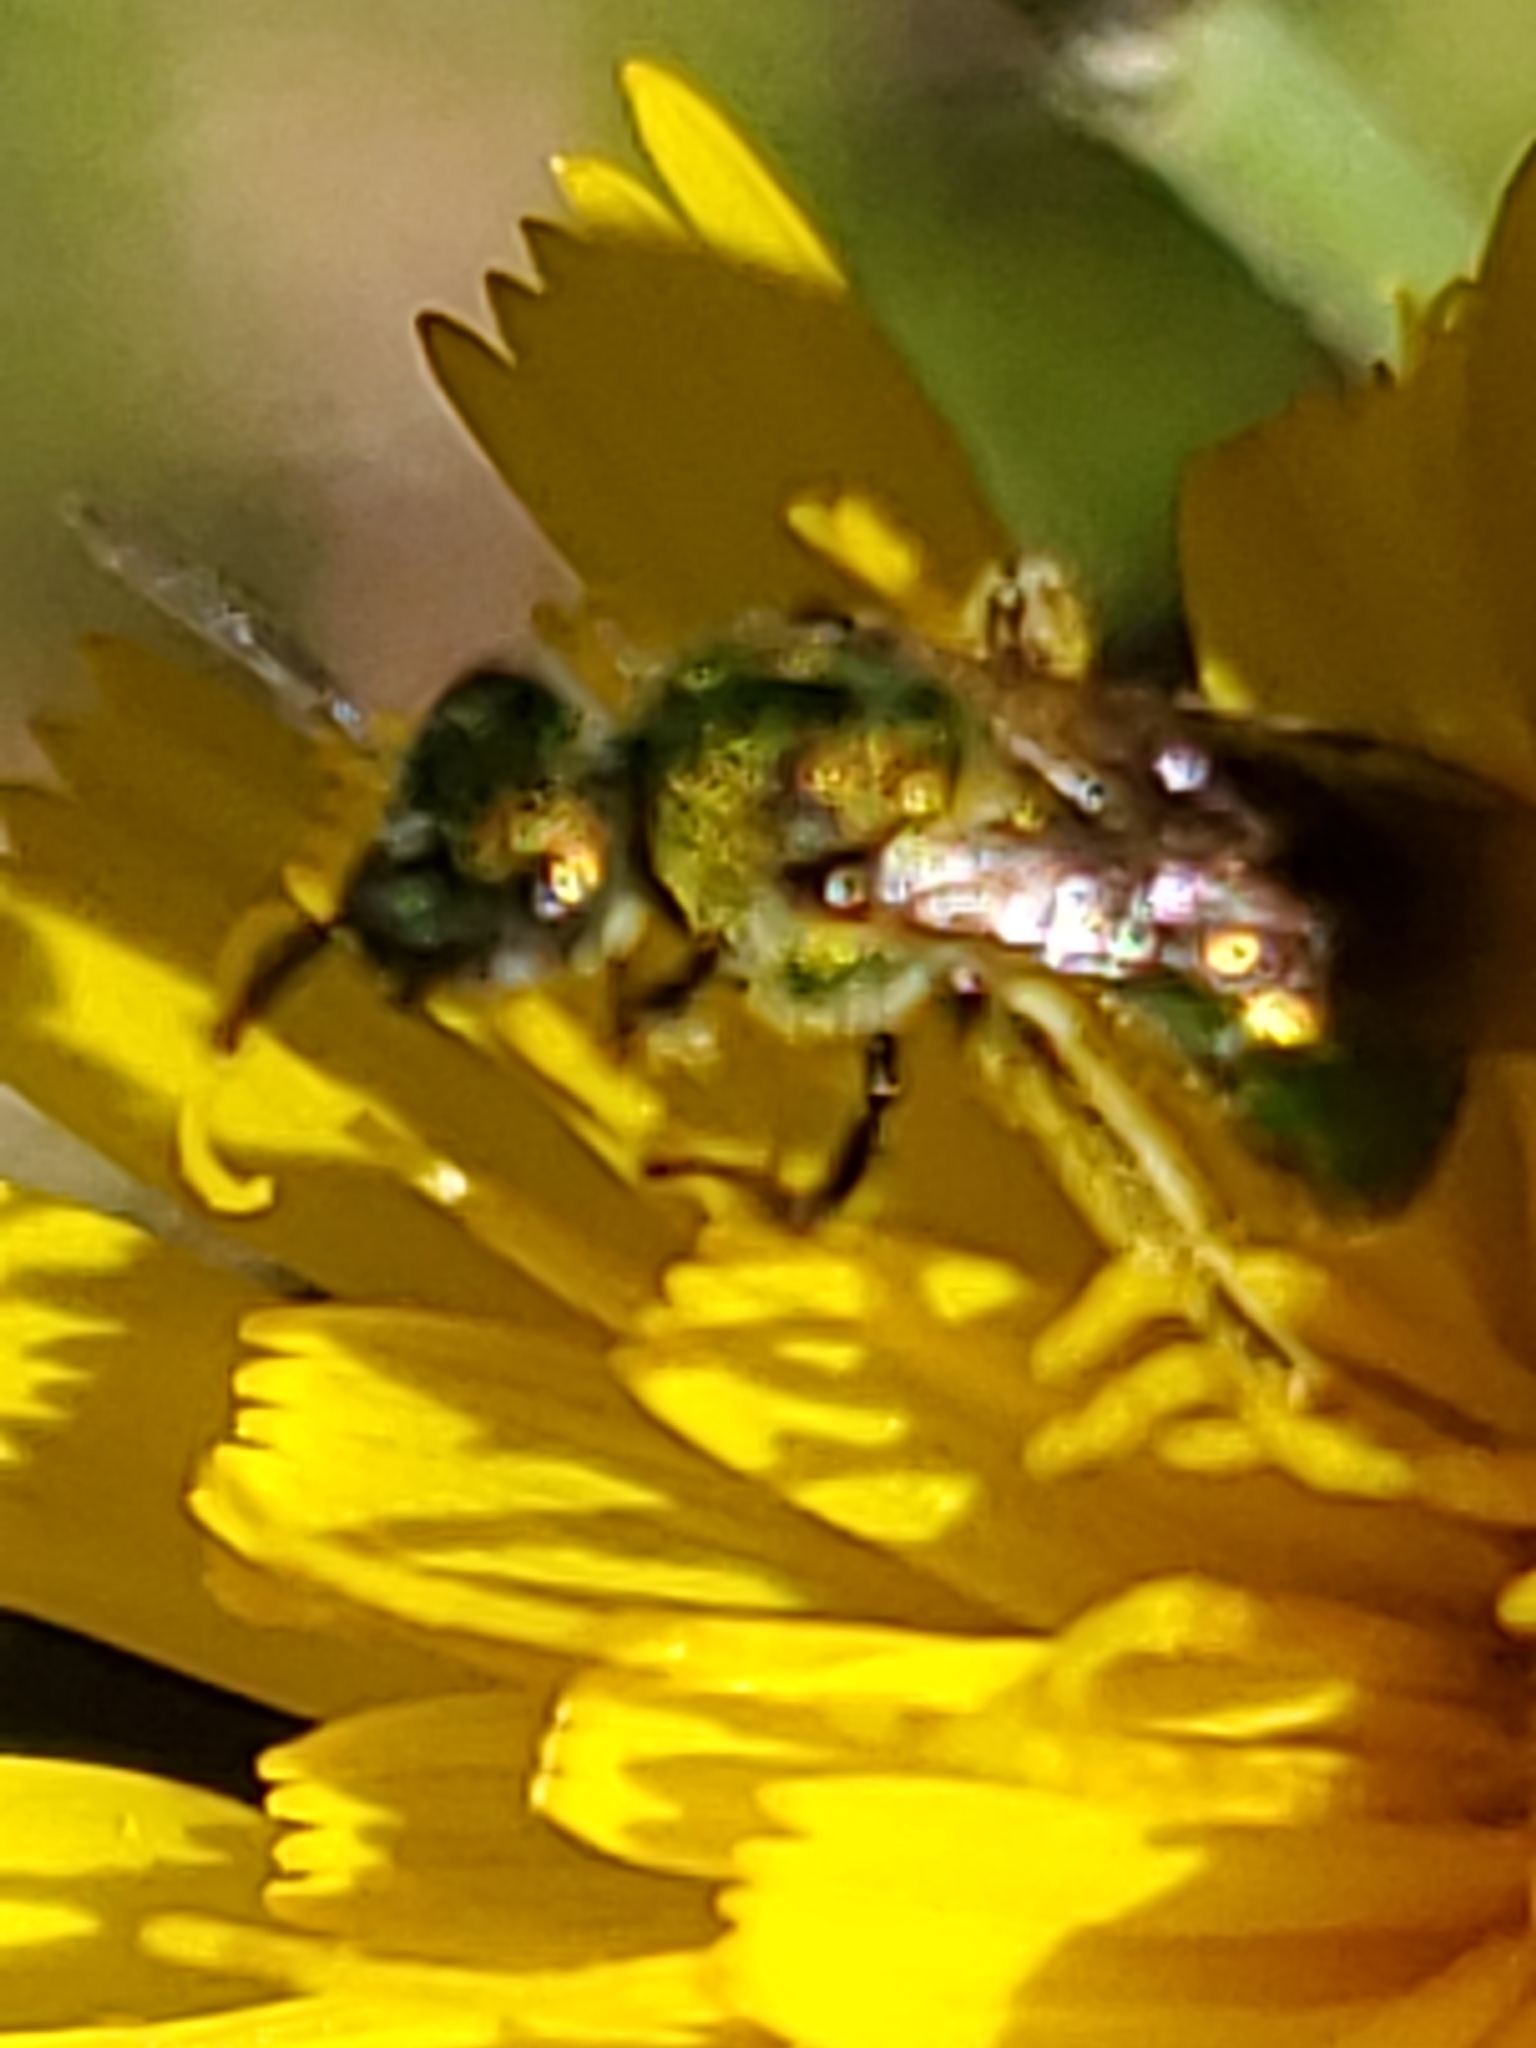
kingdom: Animalia
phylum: Arthropoda
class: Insecta
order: Hymenoptera
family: Halictidae
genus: Augochlorella
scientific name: Augochlorella aurata
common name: Golden sweat bee
